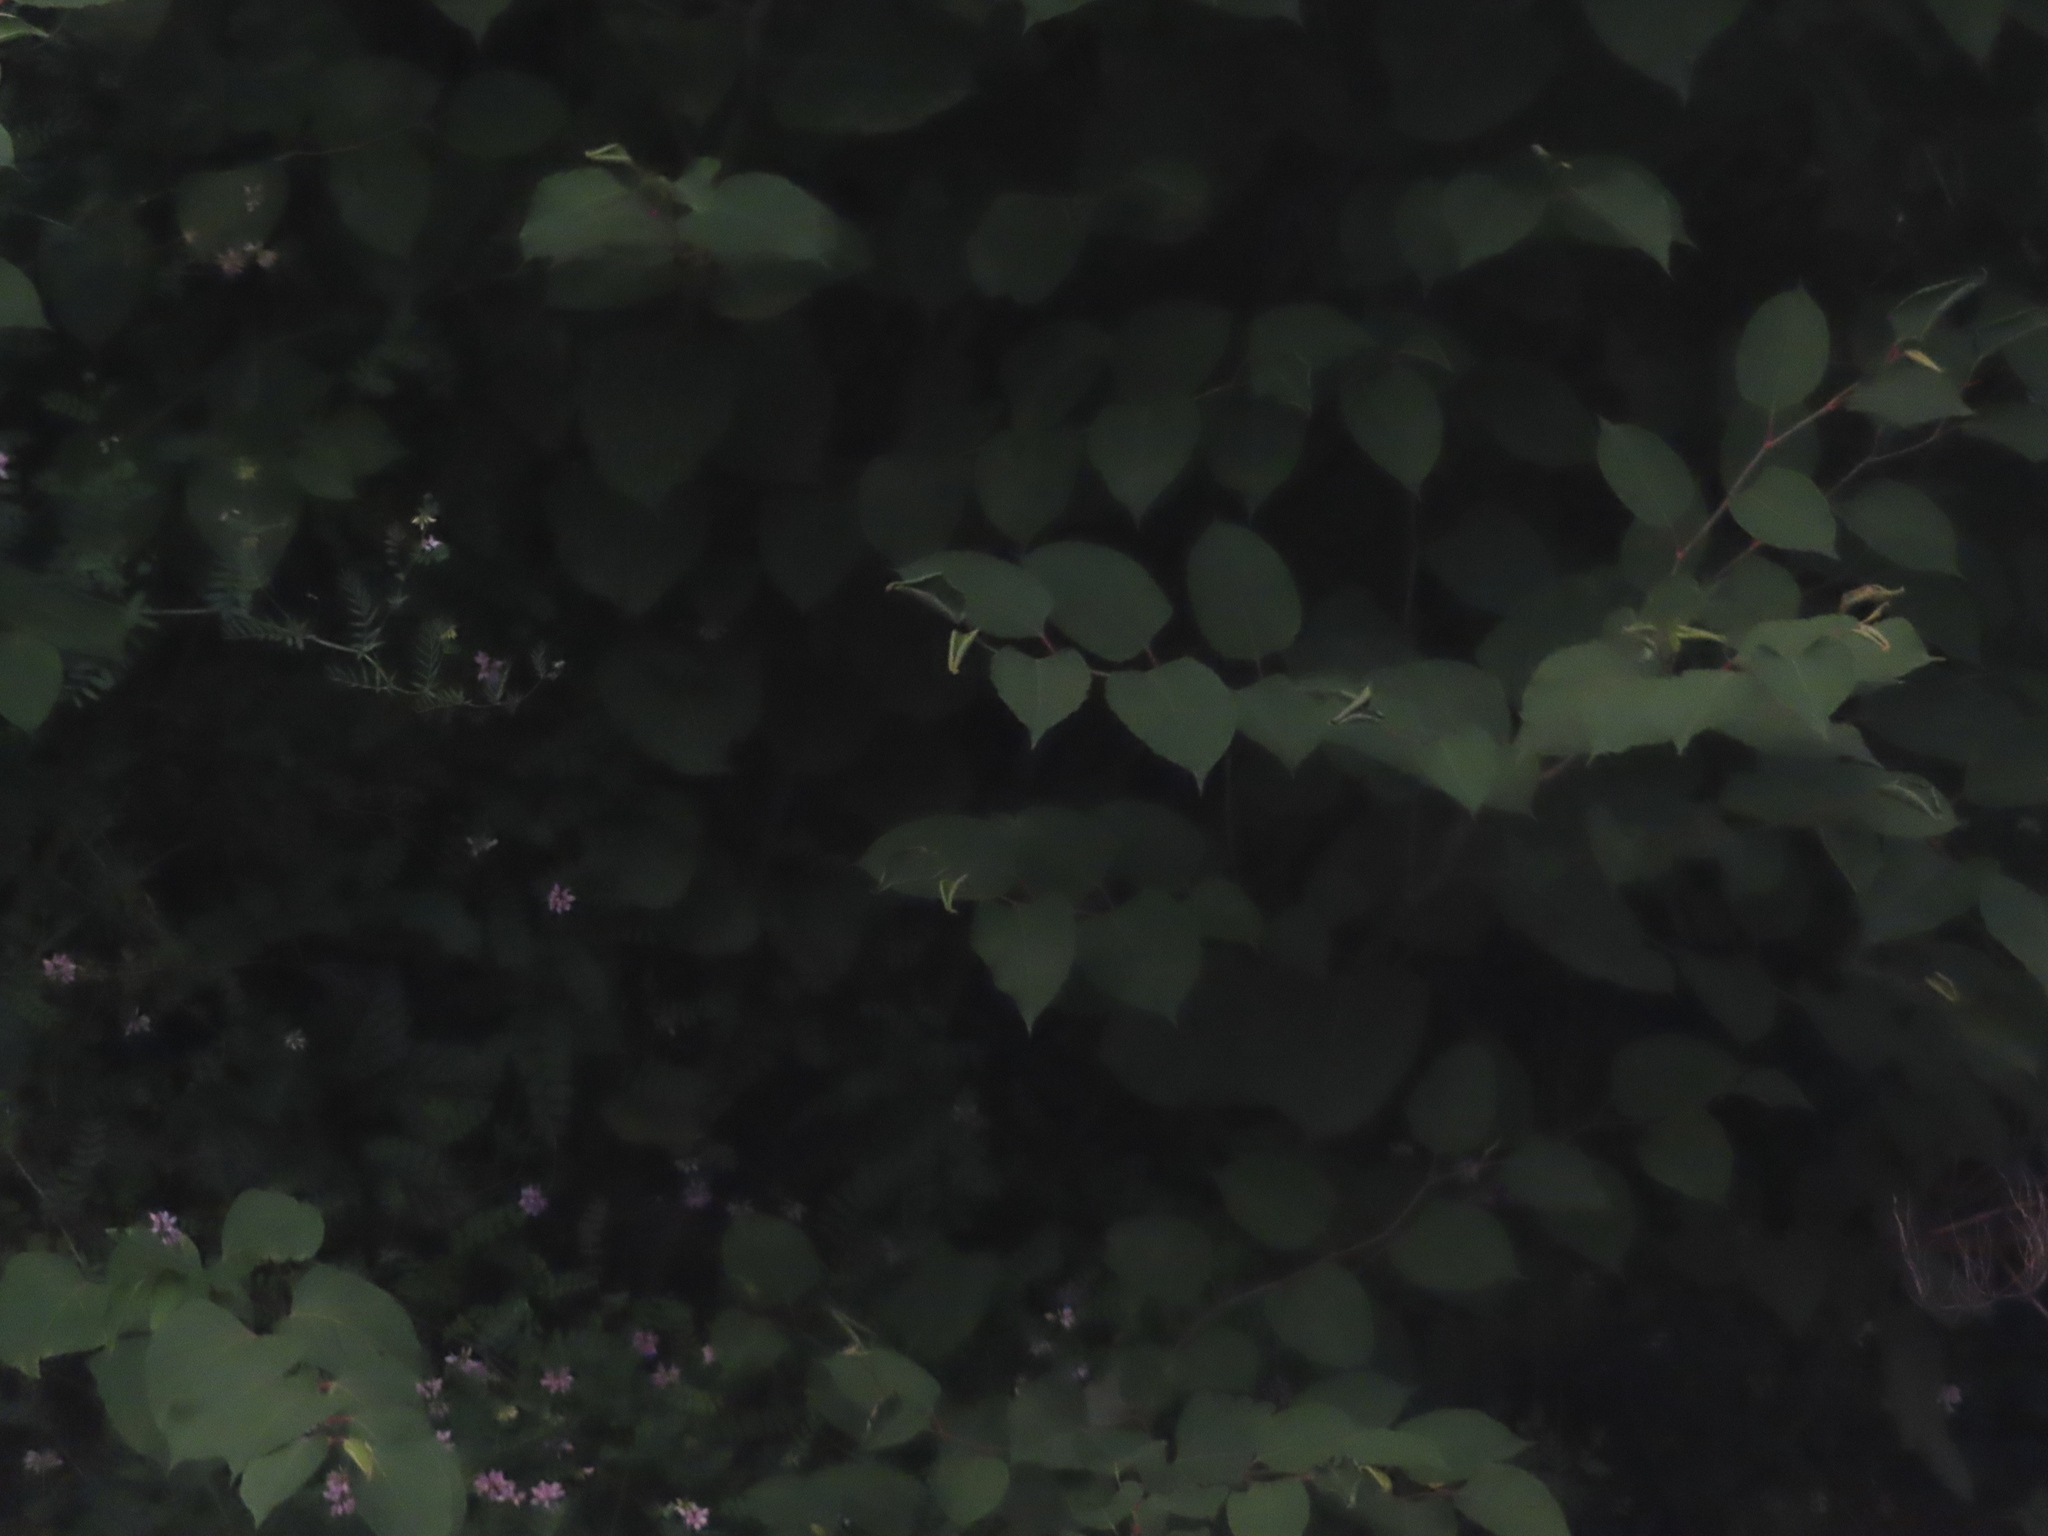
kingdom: Plantae
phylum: Tracheophyta
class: Magnoliopsida
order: Caryophyllales
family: Polygonaceae
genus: Reynoutria
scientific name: Reynoutria japonica
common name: Japanese knotweed
